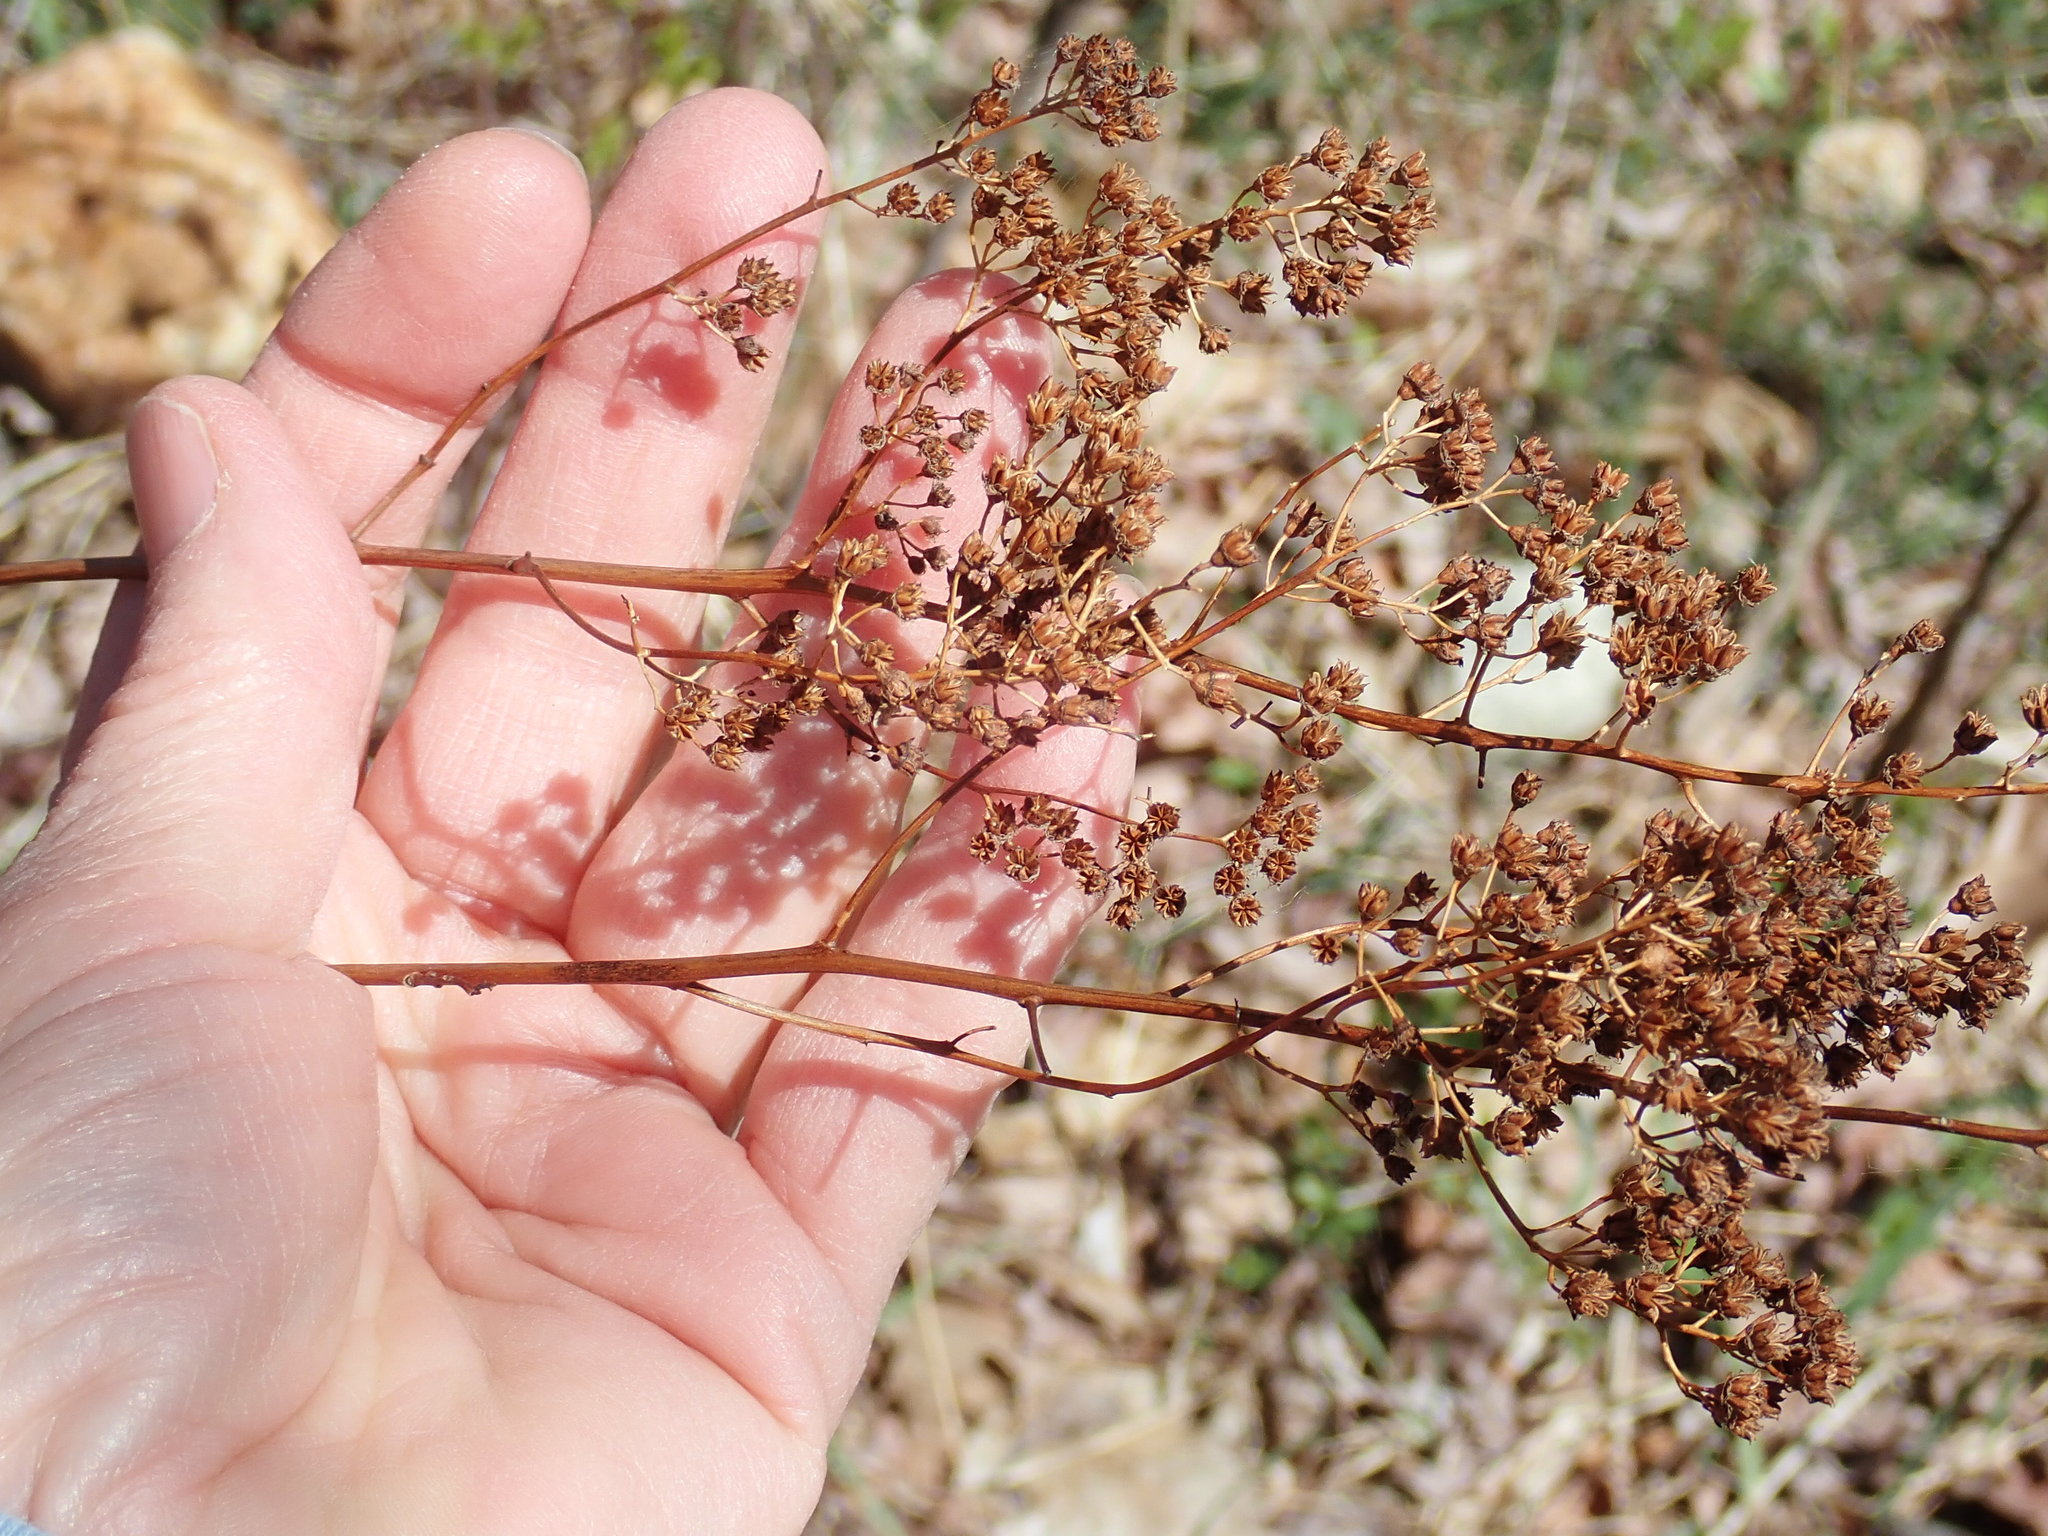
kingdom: Plantae
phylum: Tracheophyta
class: Magnoliopsida
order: Rosales
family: Rosaceae
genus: Spiraea
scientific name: Spiraea alba
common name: Pale bridewort
